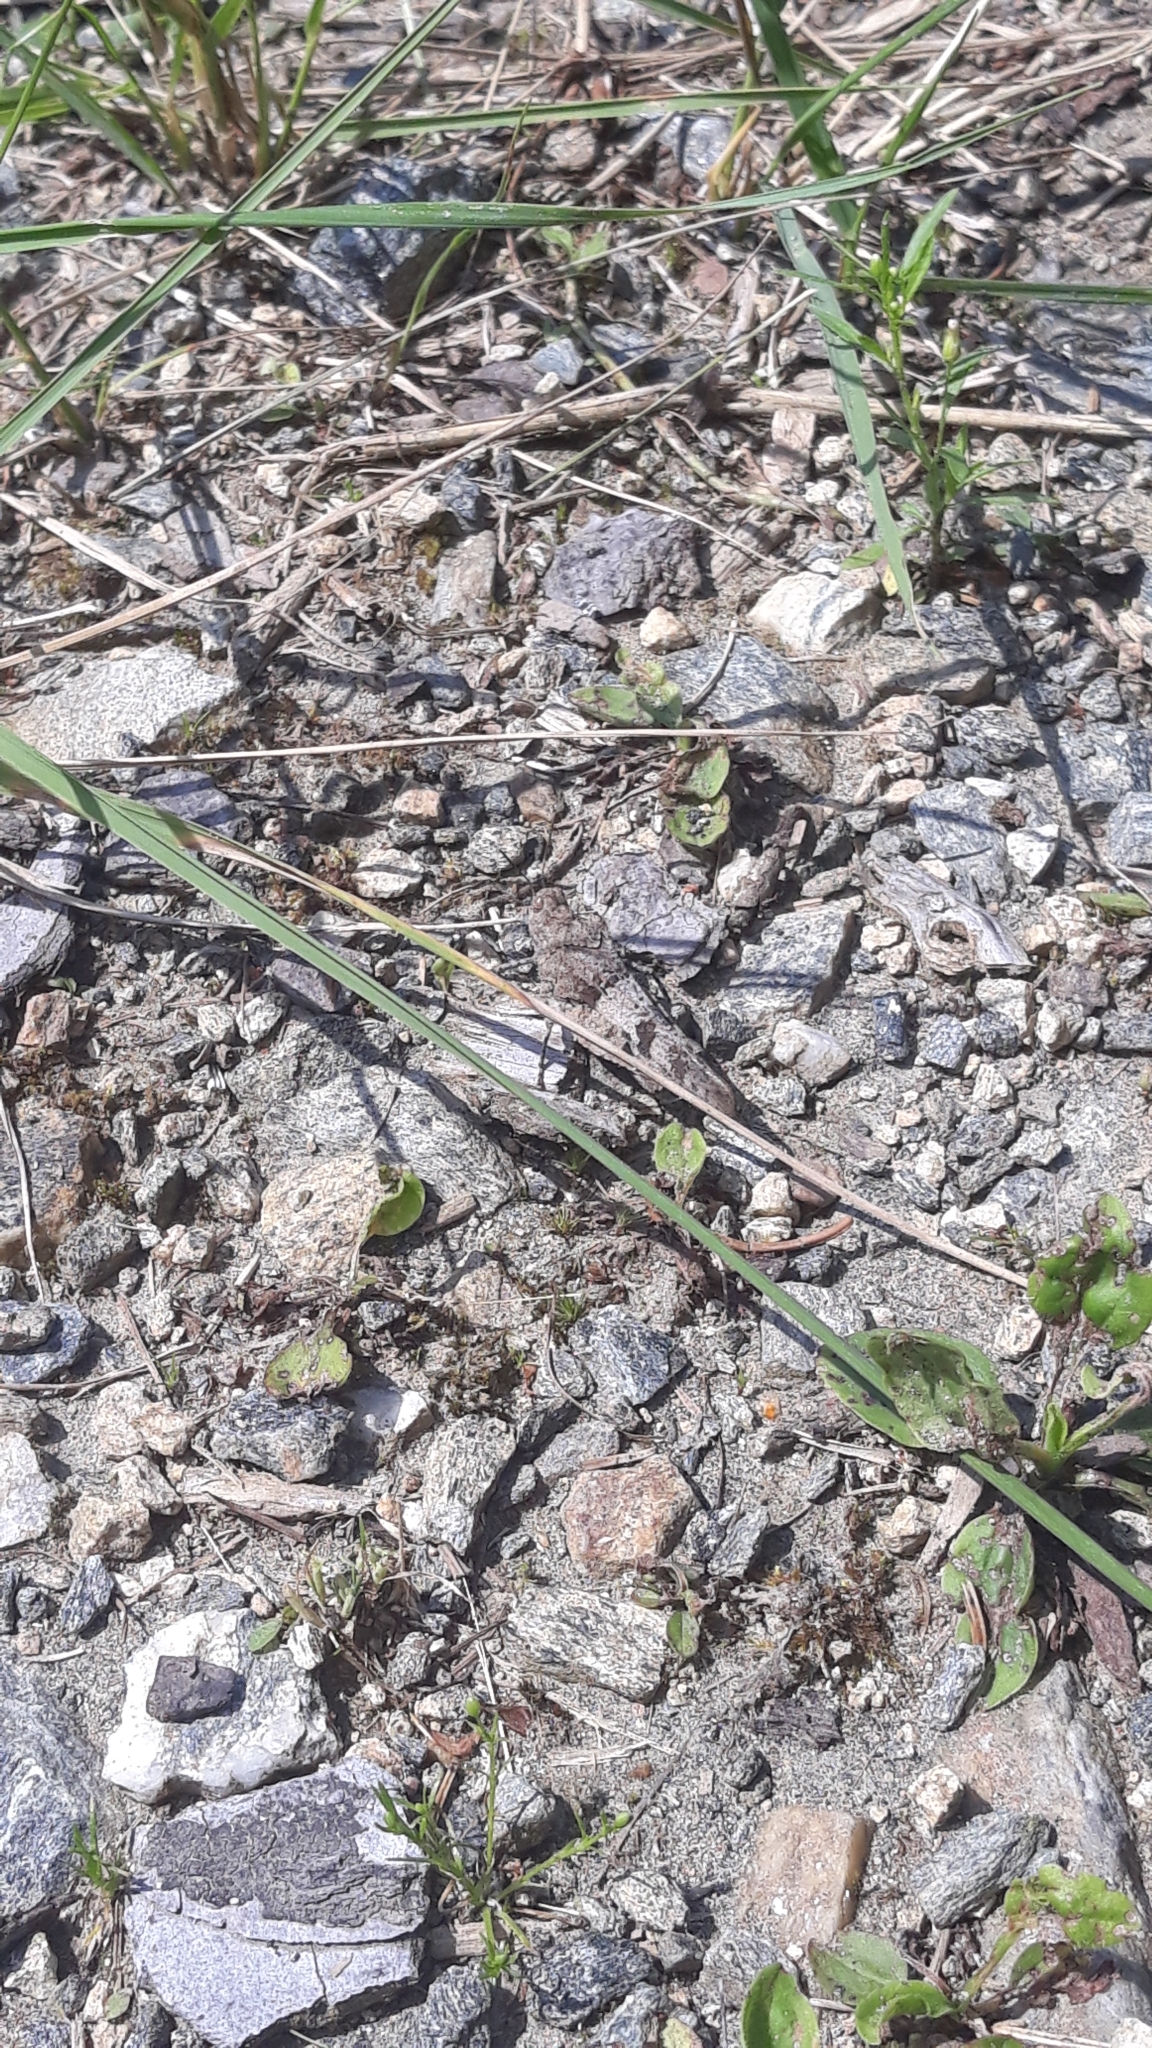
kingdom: Animalia
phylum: Arthropoda
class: Insecta
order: Orthoptera
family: Acrididae
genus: Oedipoda
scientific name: Oedipoda caerulescens
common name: Blue-winged grasshopper
